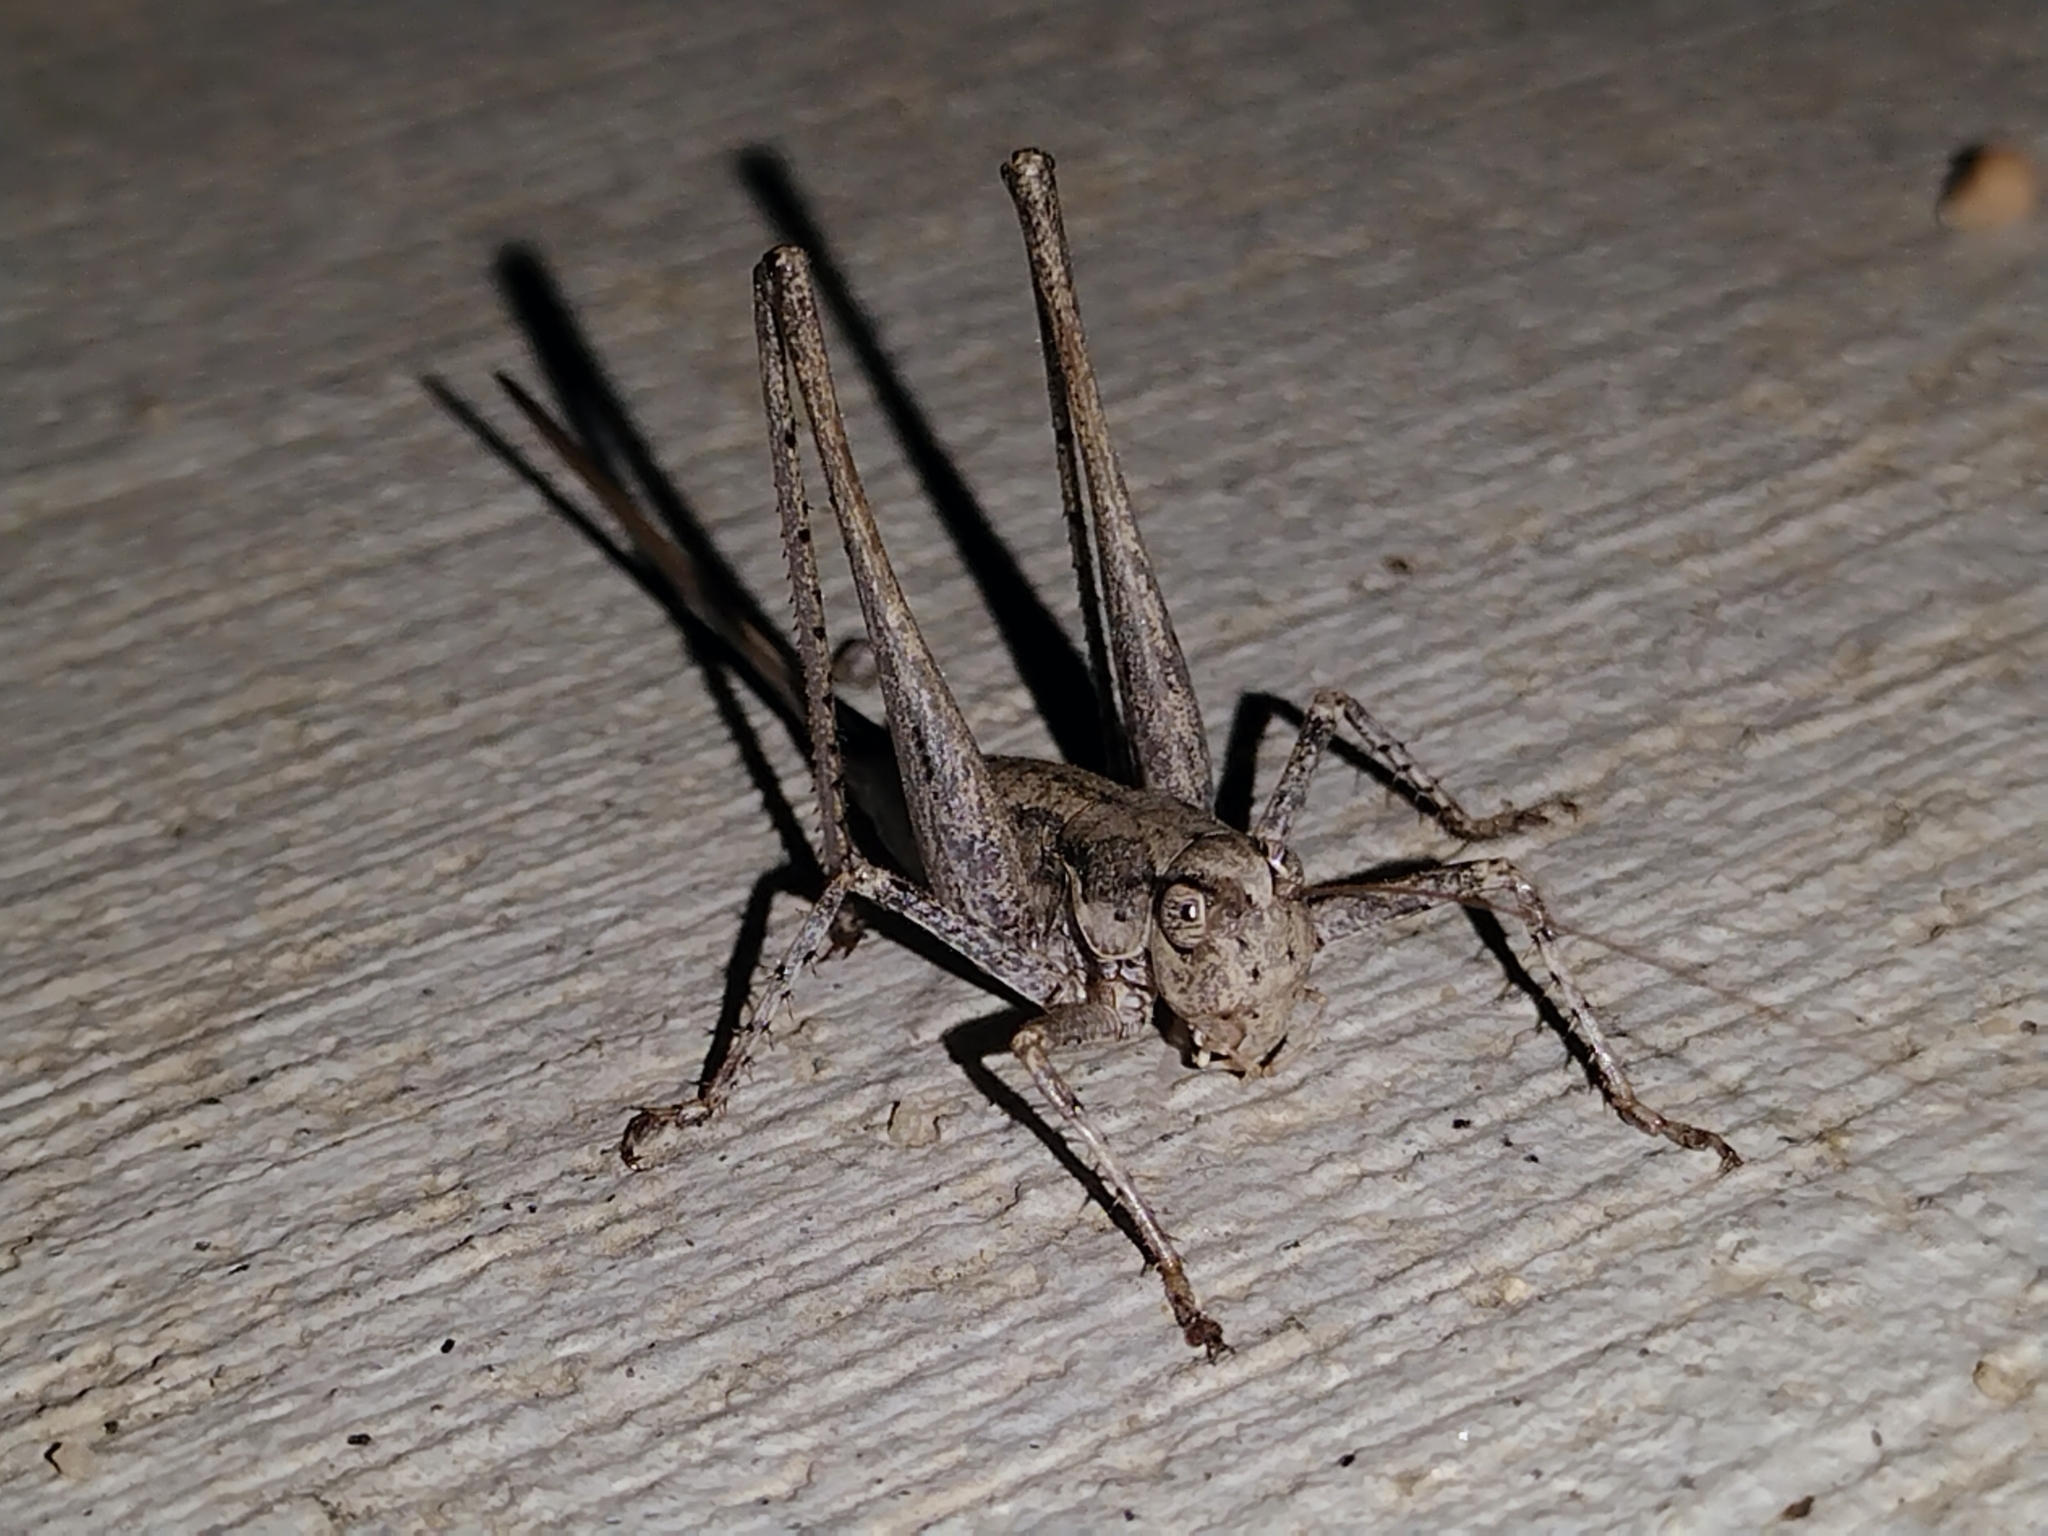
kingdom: Animalia
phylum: Arthropoda
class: Insecta
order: Orthoptera
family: Tettigoniidae
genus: Idiostatus
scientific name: Idiostatus aequalis
